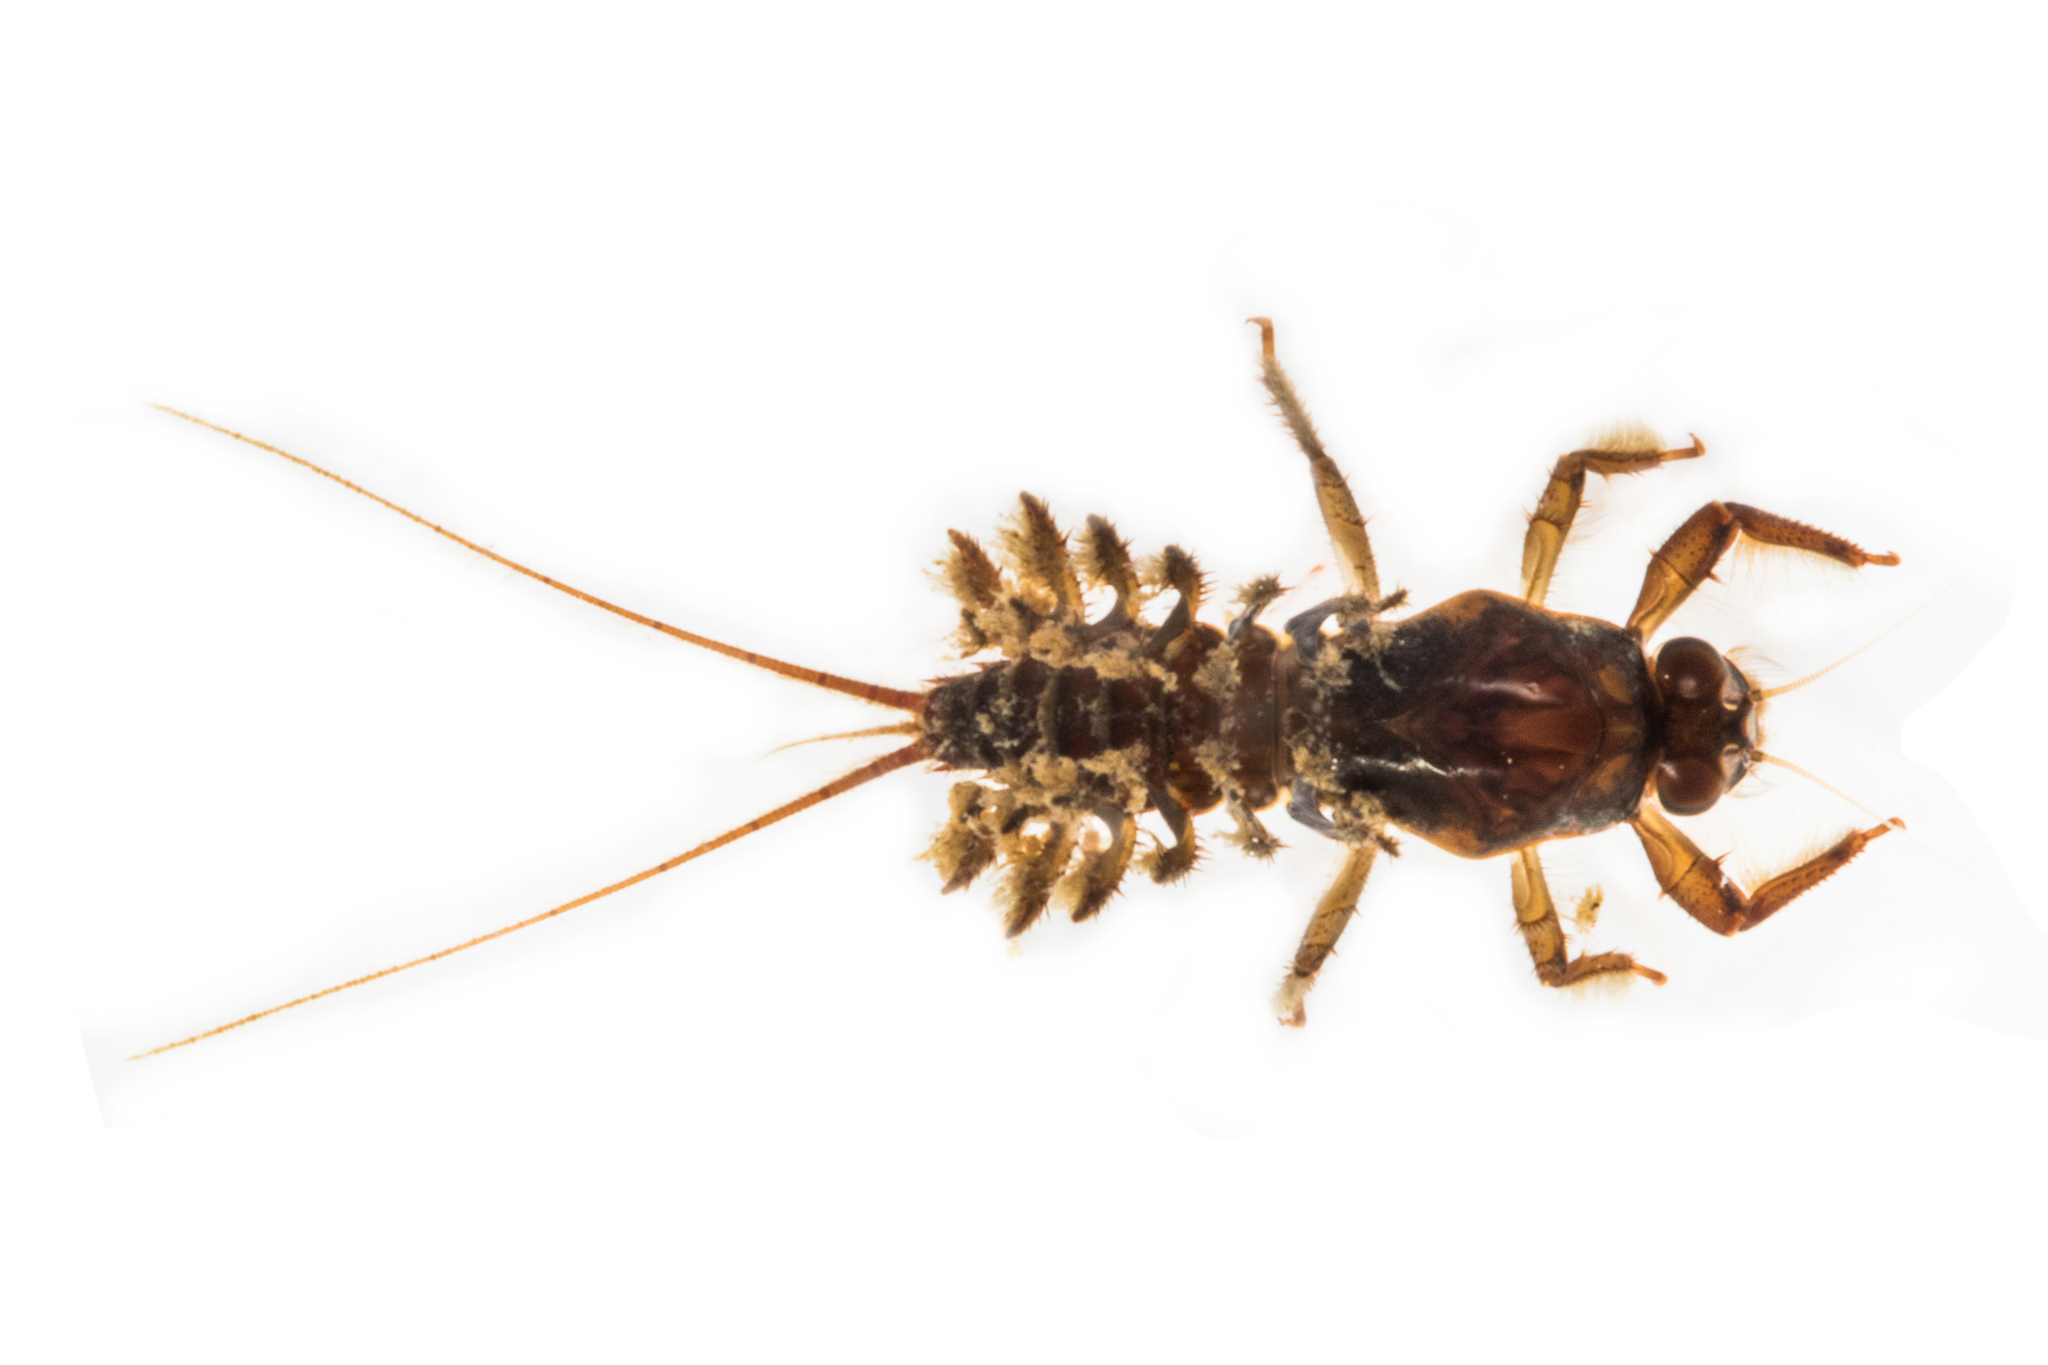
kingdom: Animalia
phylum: Arthropoda
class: Insecta
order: Ephemeroptera
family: Coloburiscidae
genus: Coloburiscus
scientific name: Coloburiscus humeralis
